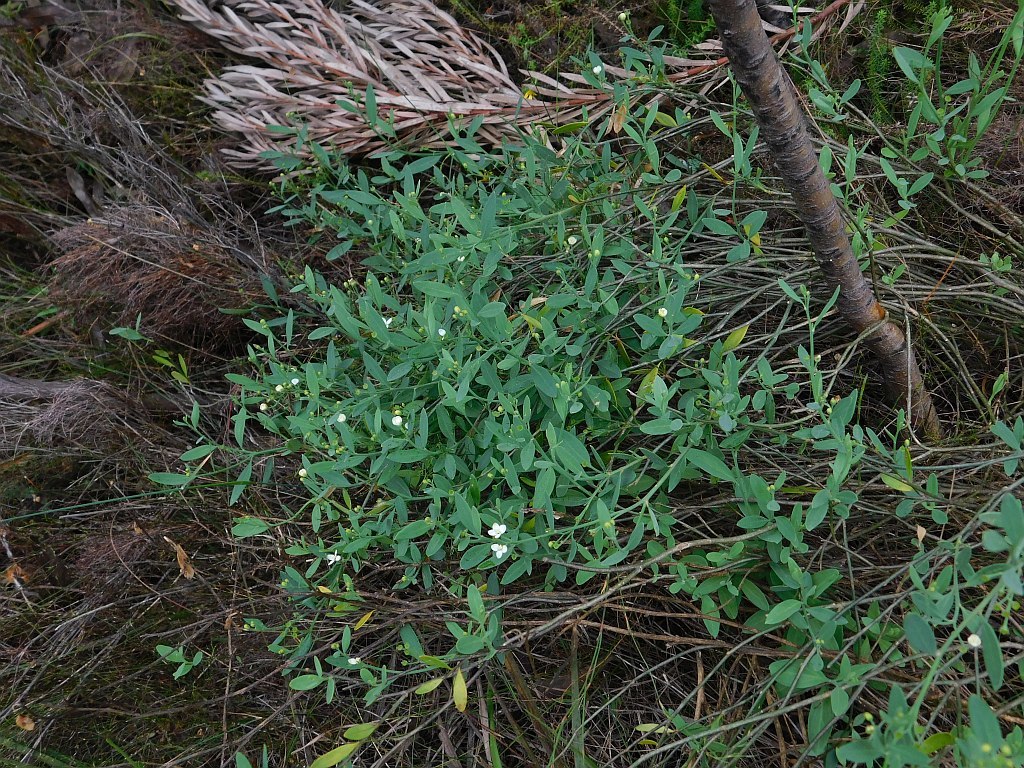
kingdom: Plantae
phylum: Tracheophyta
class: Magnoliopsida
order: Solanales
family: Montiniaceae
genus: Montinia
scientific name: Montinia caryophyllacea
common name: Wild clove-bush
